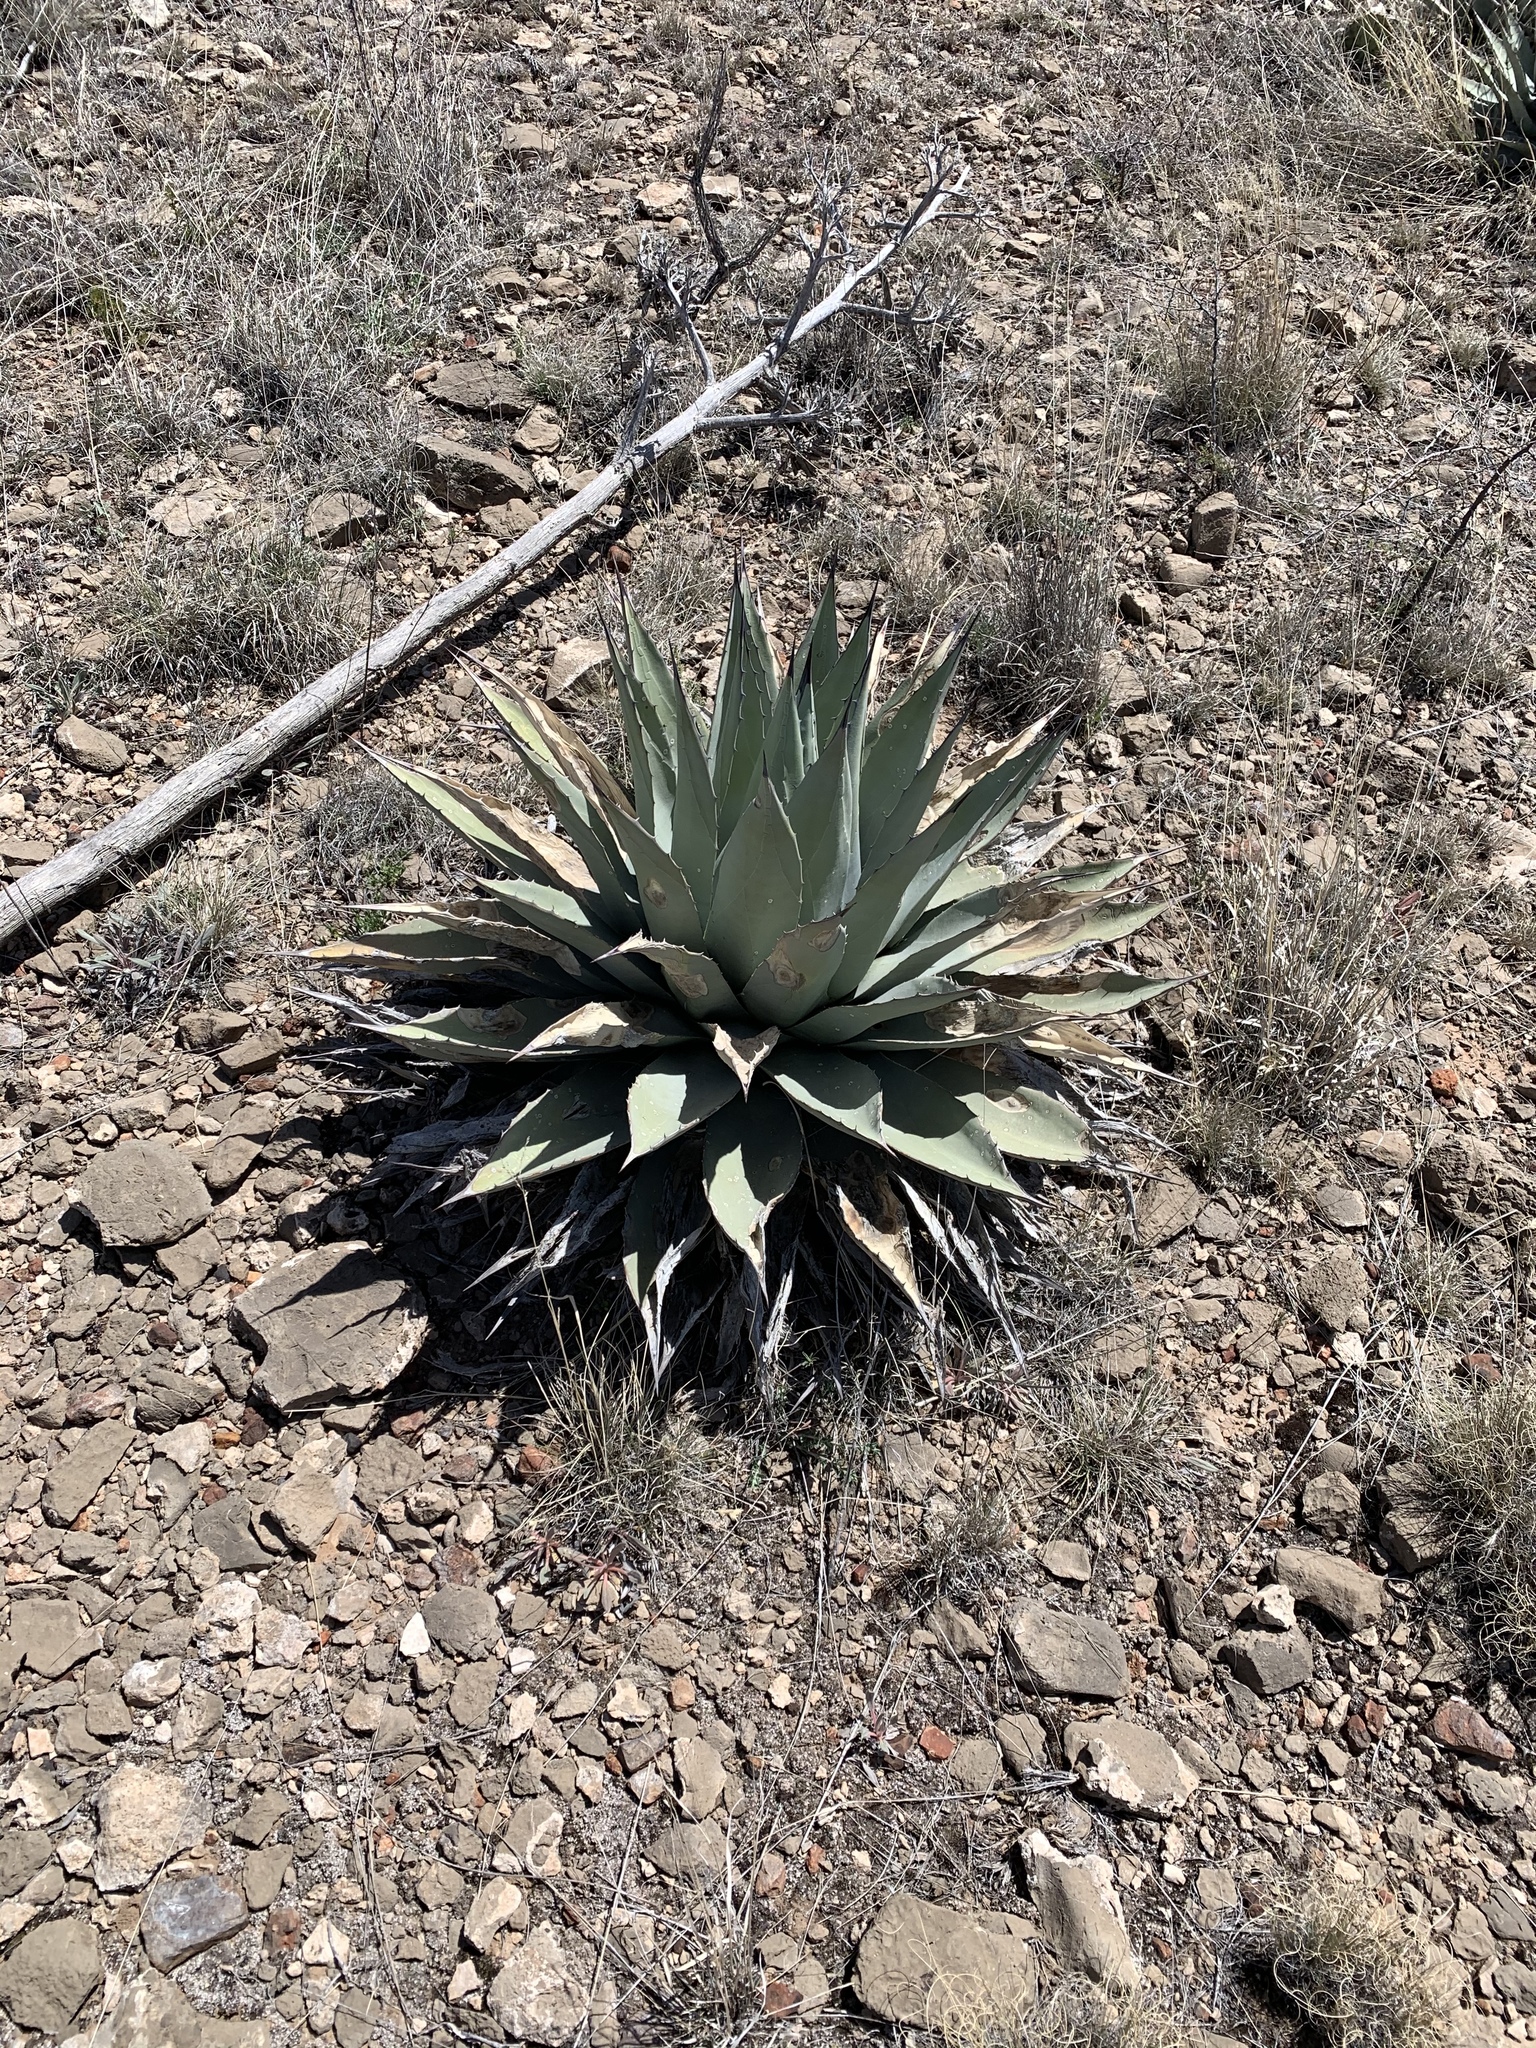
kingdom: Plantae
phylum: Tracheophyta
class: Liliopsida
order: Asparagales
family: Asparagaceae
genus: Agave
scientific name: Agave parryi
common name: Parry's agave
